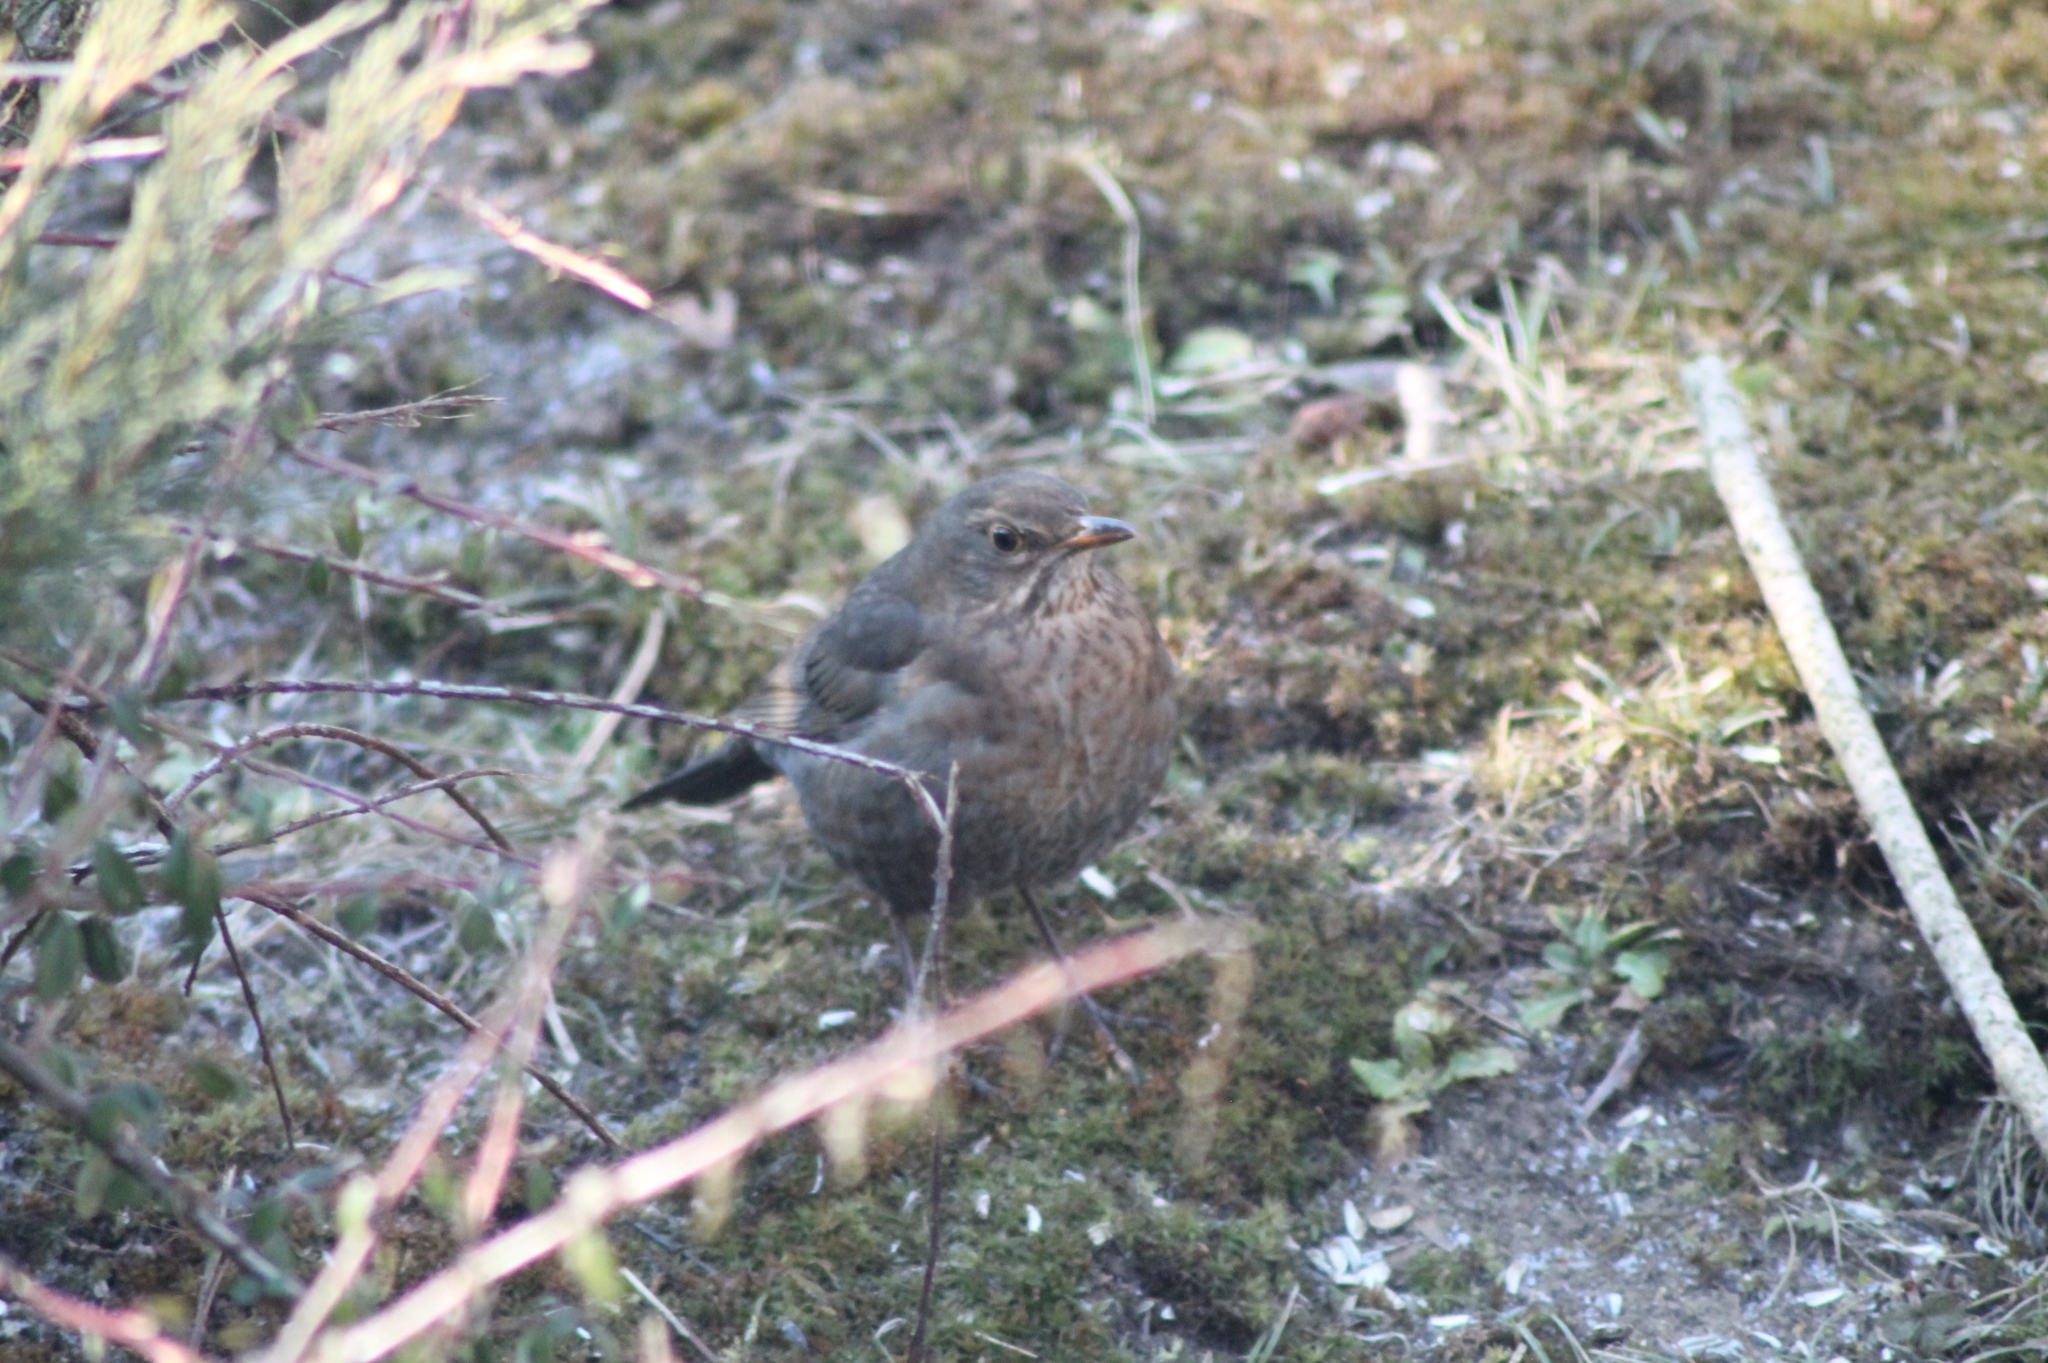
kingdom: Animalia
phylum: Chordata
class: Aves
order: Passeriformes
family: Turdidae
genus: Turdus
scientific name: Turdus merula
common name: Common blackbird
